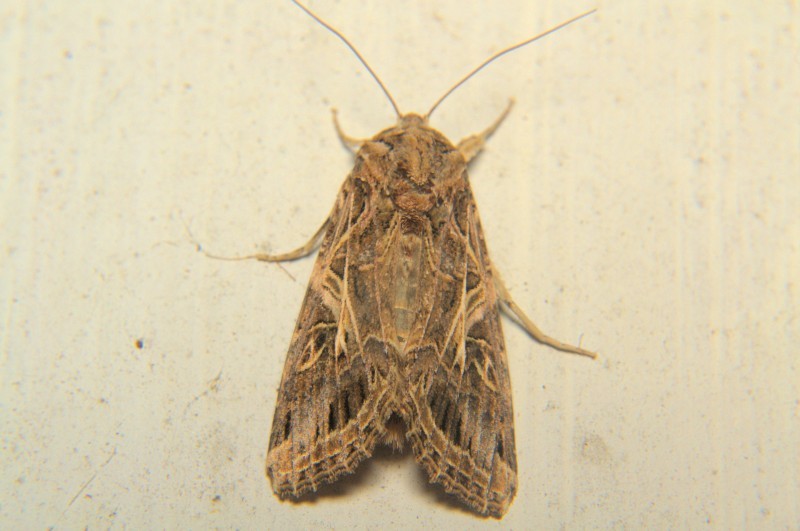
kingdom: Animalia
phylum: Arthropoda
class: Insecta
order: Lepidoptera
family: Noctuidae
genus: Spodoptera
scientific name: Spodoptera litura
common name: Asian cotton leafworm
